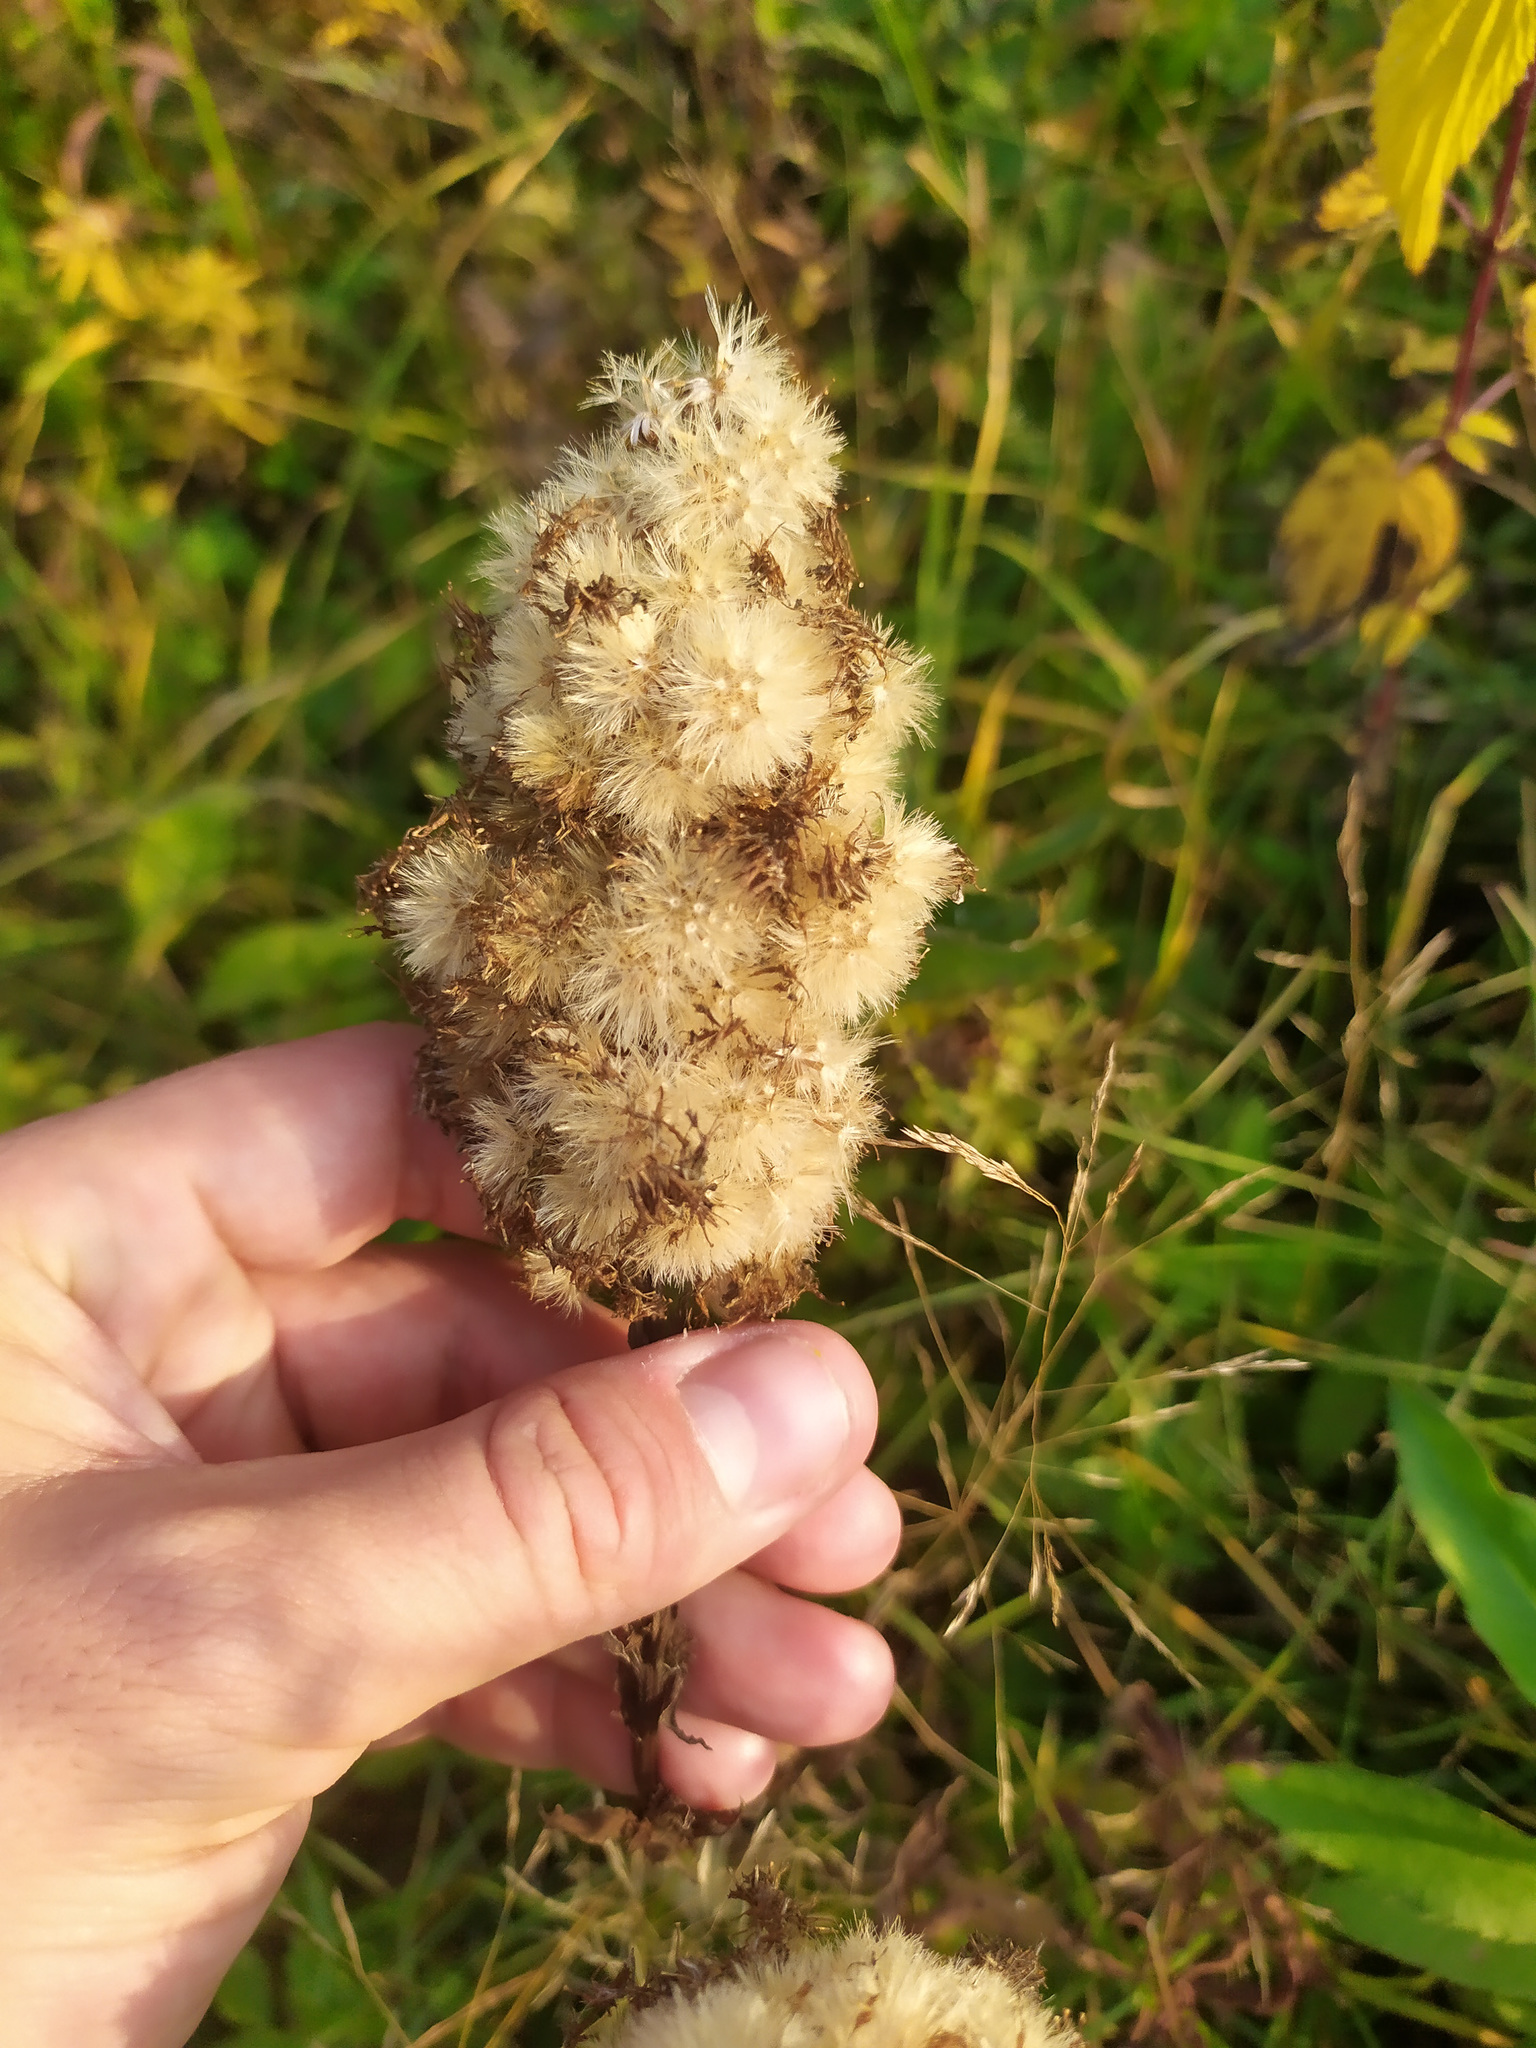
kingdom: Plantae
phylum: Tracheophyta
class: Magnoliopsida
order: Asterales
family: Asteraceae
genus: Solidago
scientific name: Solidago virgaurea
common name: Goldenrod
